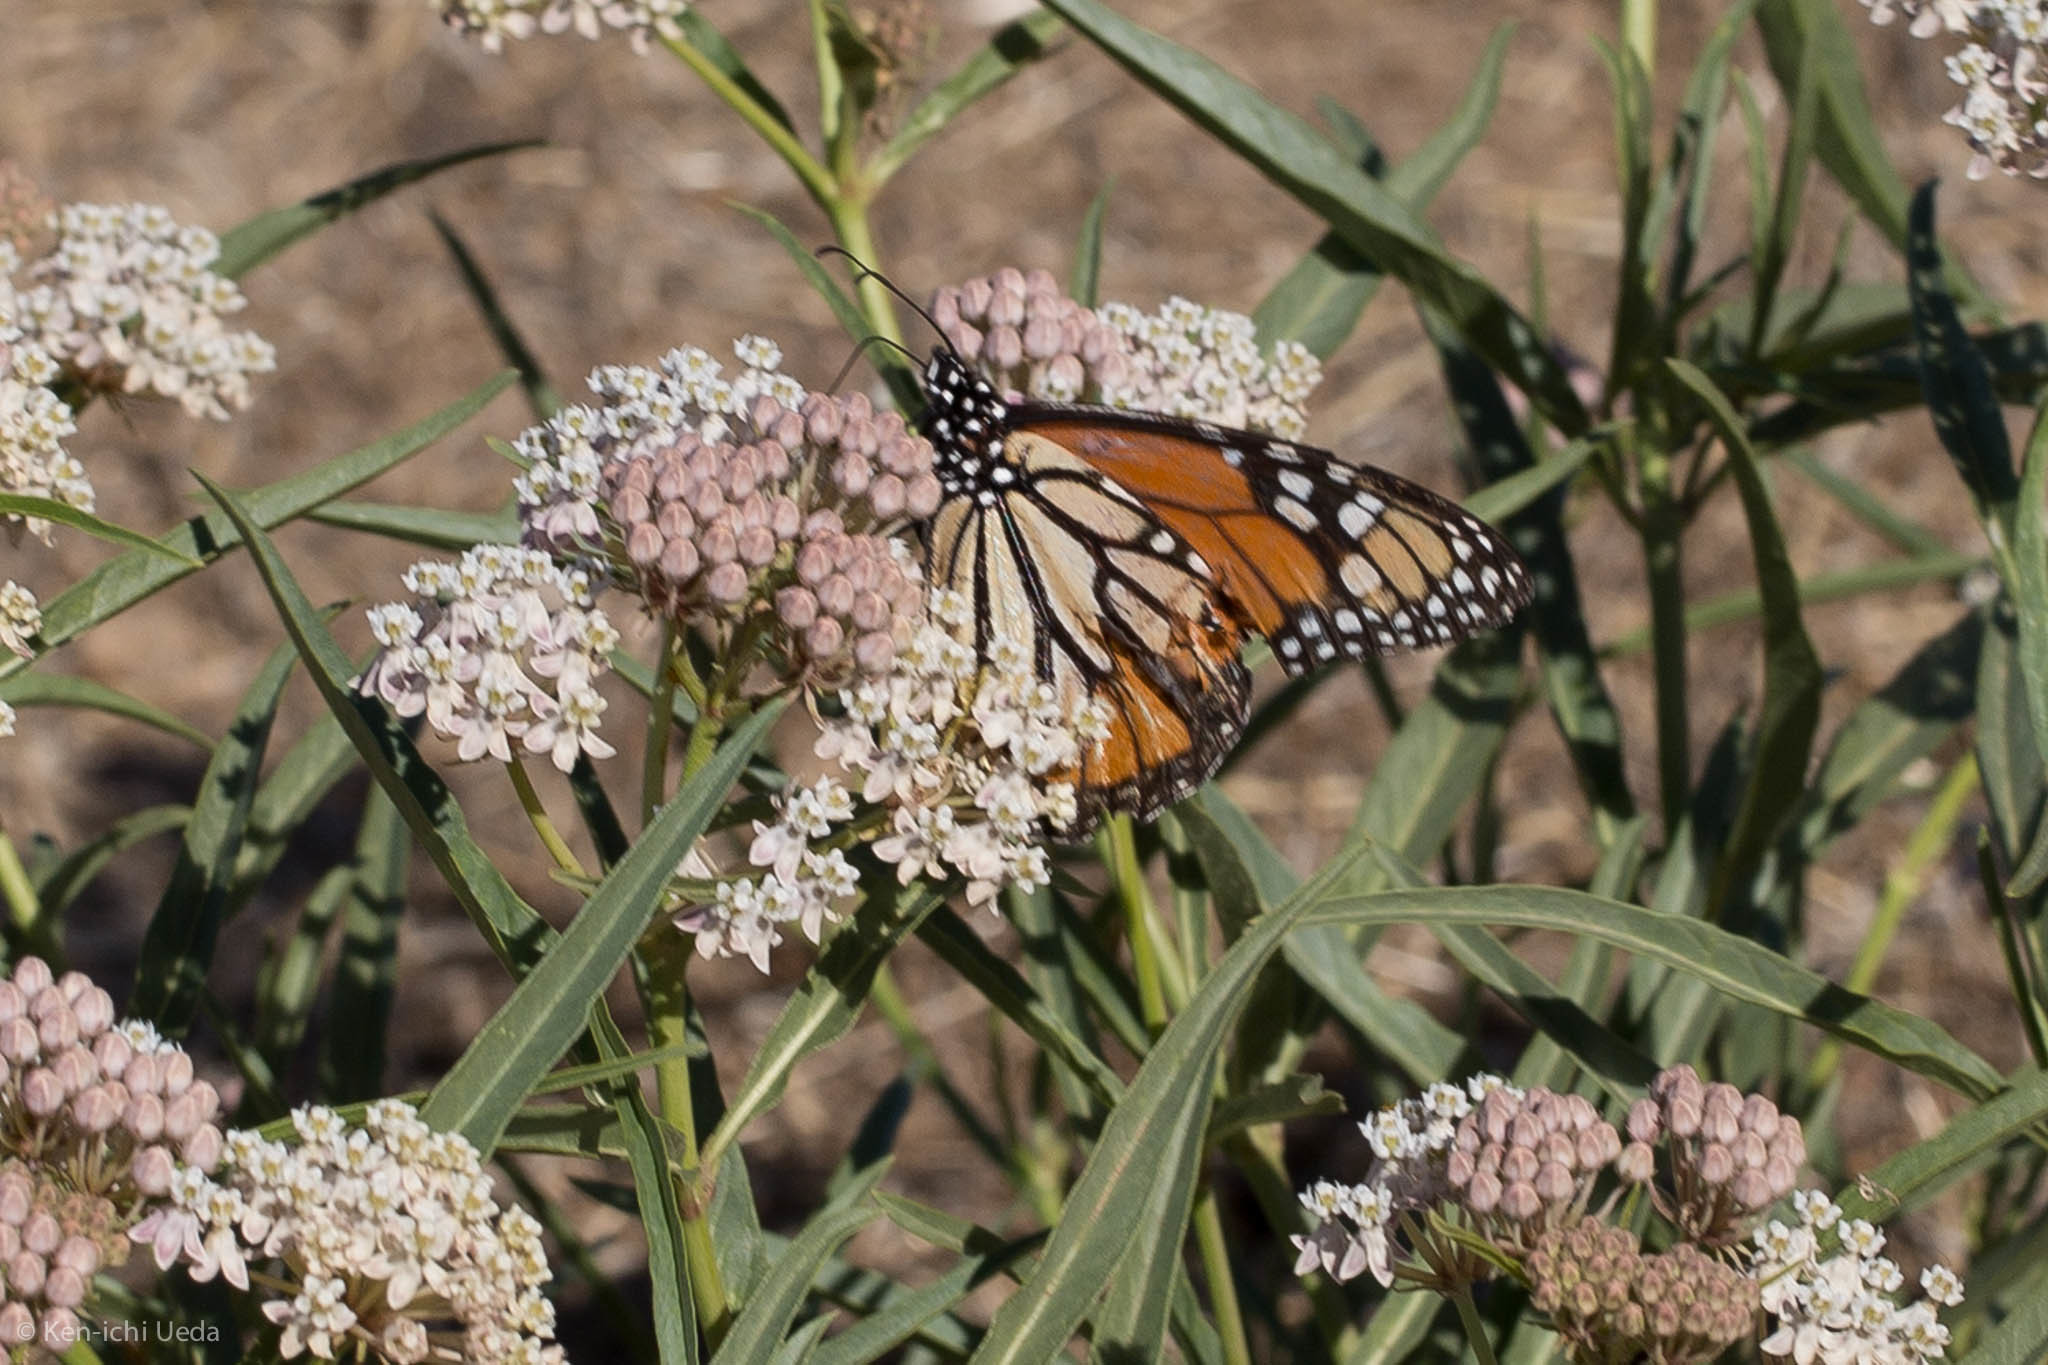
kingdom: Animalia
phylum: Arthropoda
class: Insecta
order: Lepidoptera
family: Nymphalidae
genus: Danaus
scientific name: Danaus plexippus
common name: Monarch
